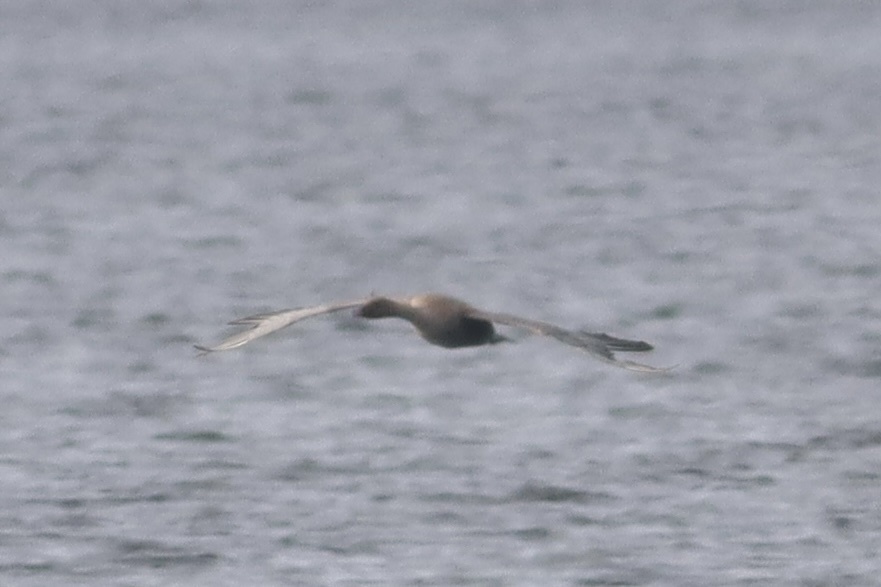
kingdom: Animalia
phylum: Chordata
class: Aves
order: Anseriformes
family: Anatidae
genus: Anser
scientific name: Anser brachyrhynchus
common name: Pink-footed goose
